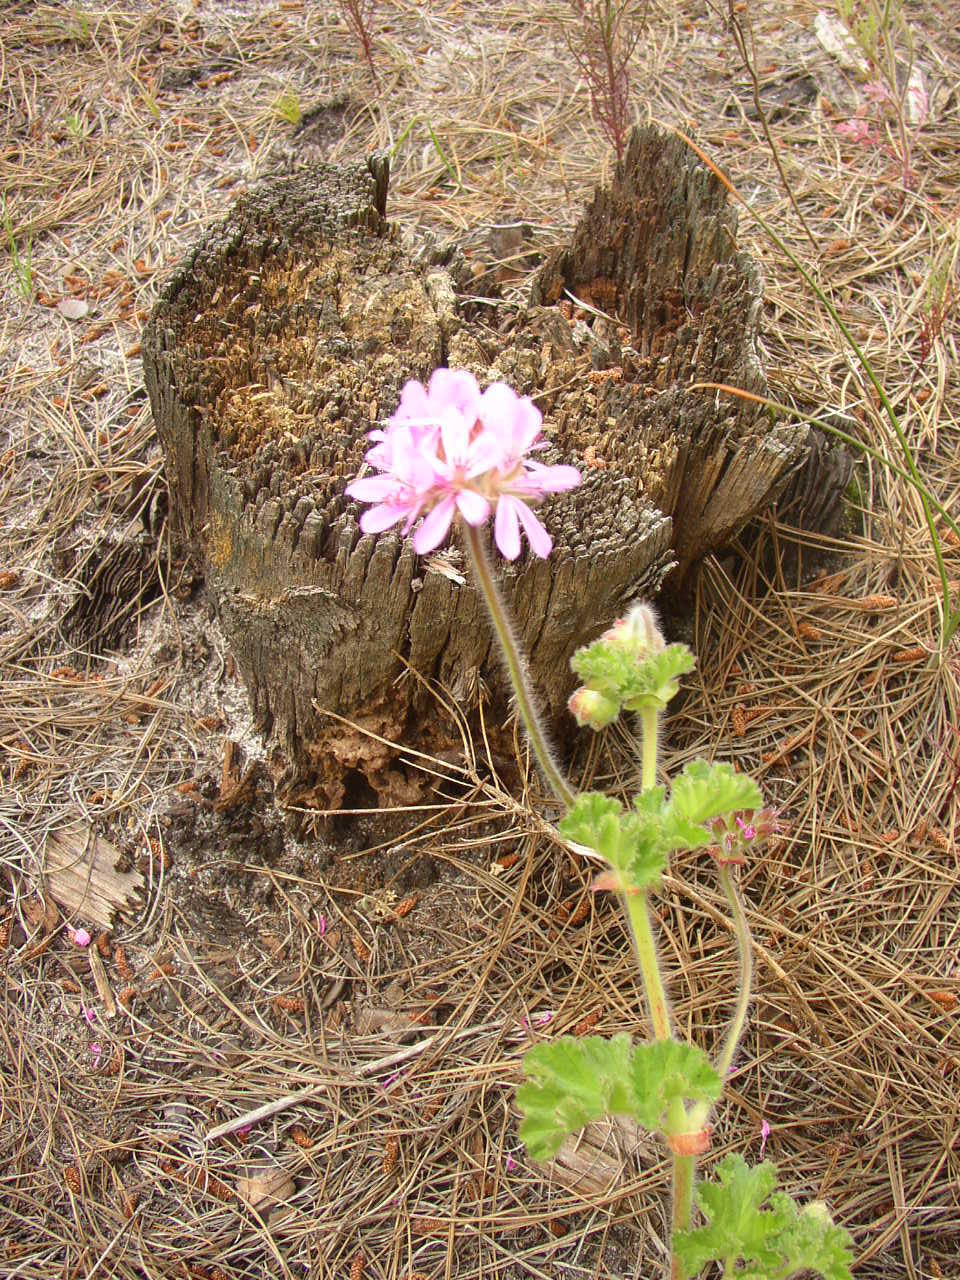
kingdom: Plantae
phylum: Tracheophyta
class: Magnoliopsida
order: Geraniales
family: Geraniaceae
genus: Pelargonium
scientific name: Pelargonium capitatum
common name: Rose scented geranium
